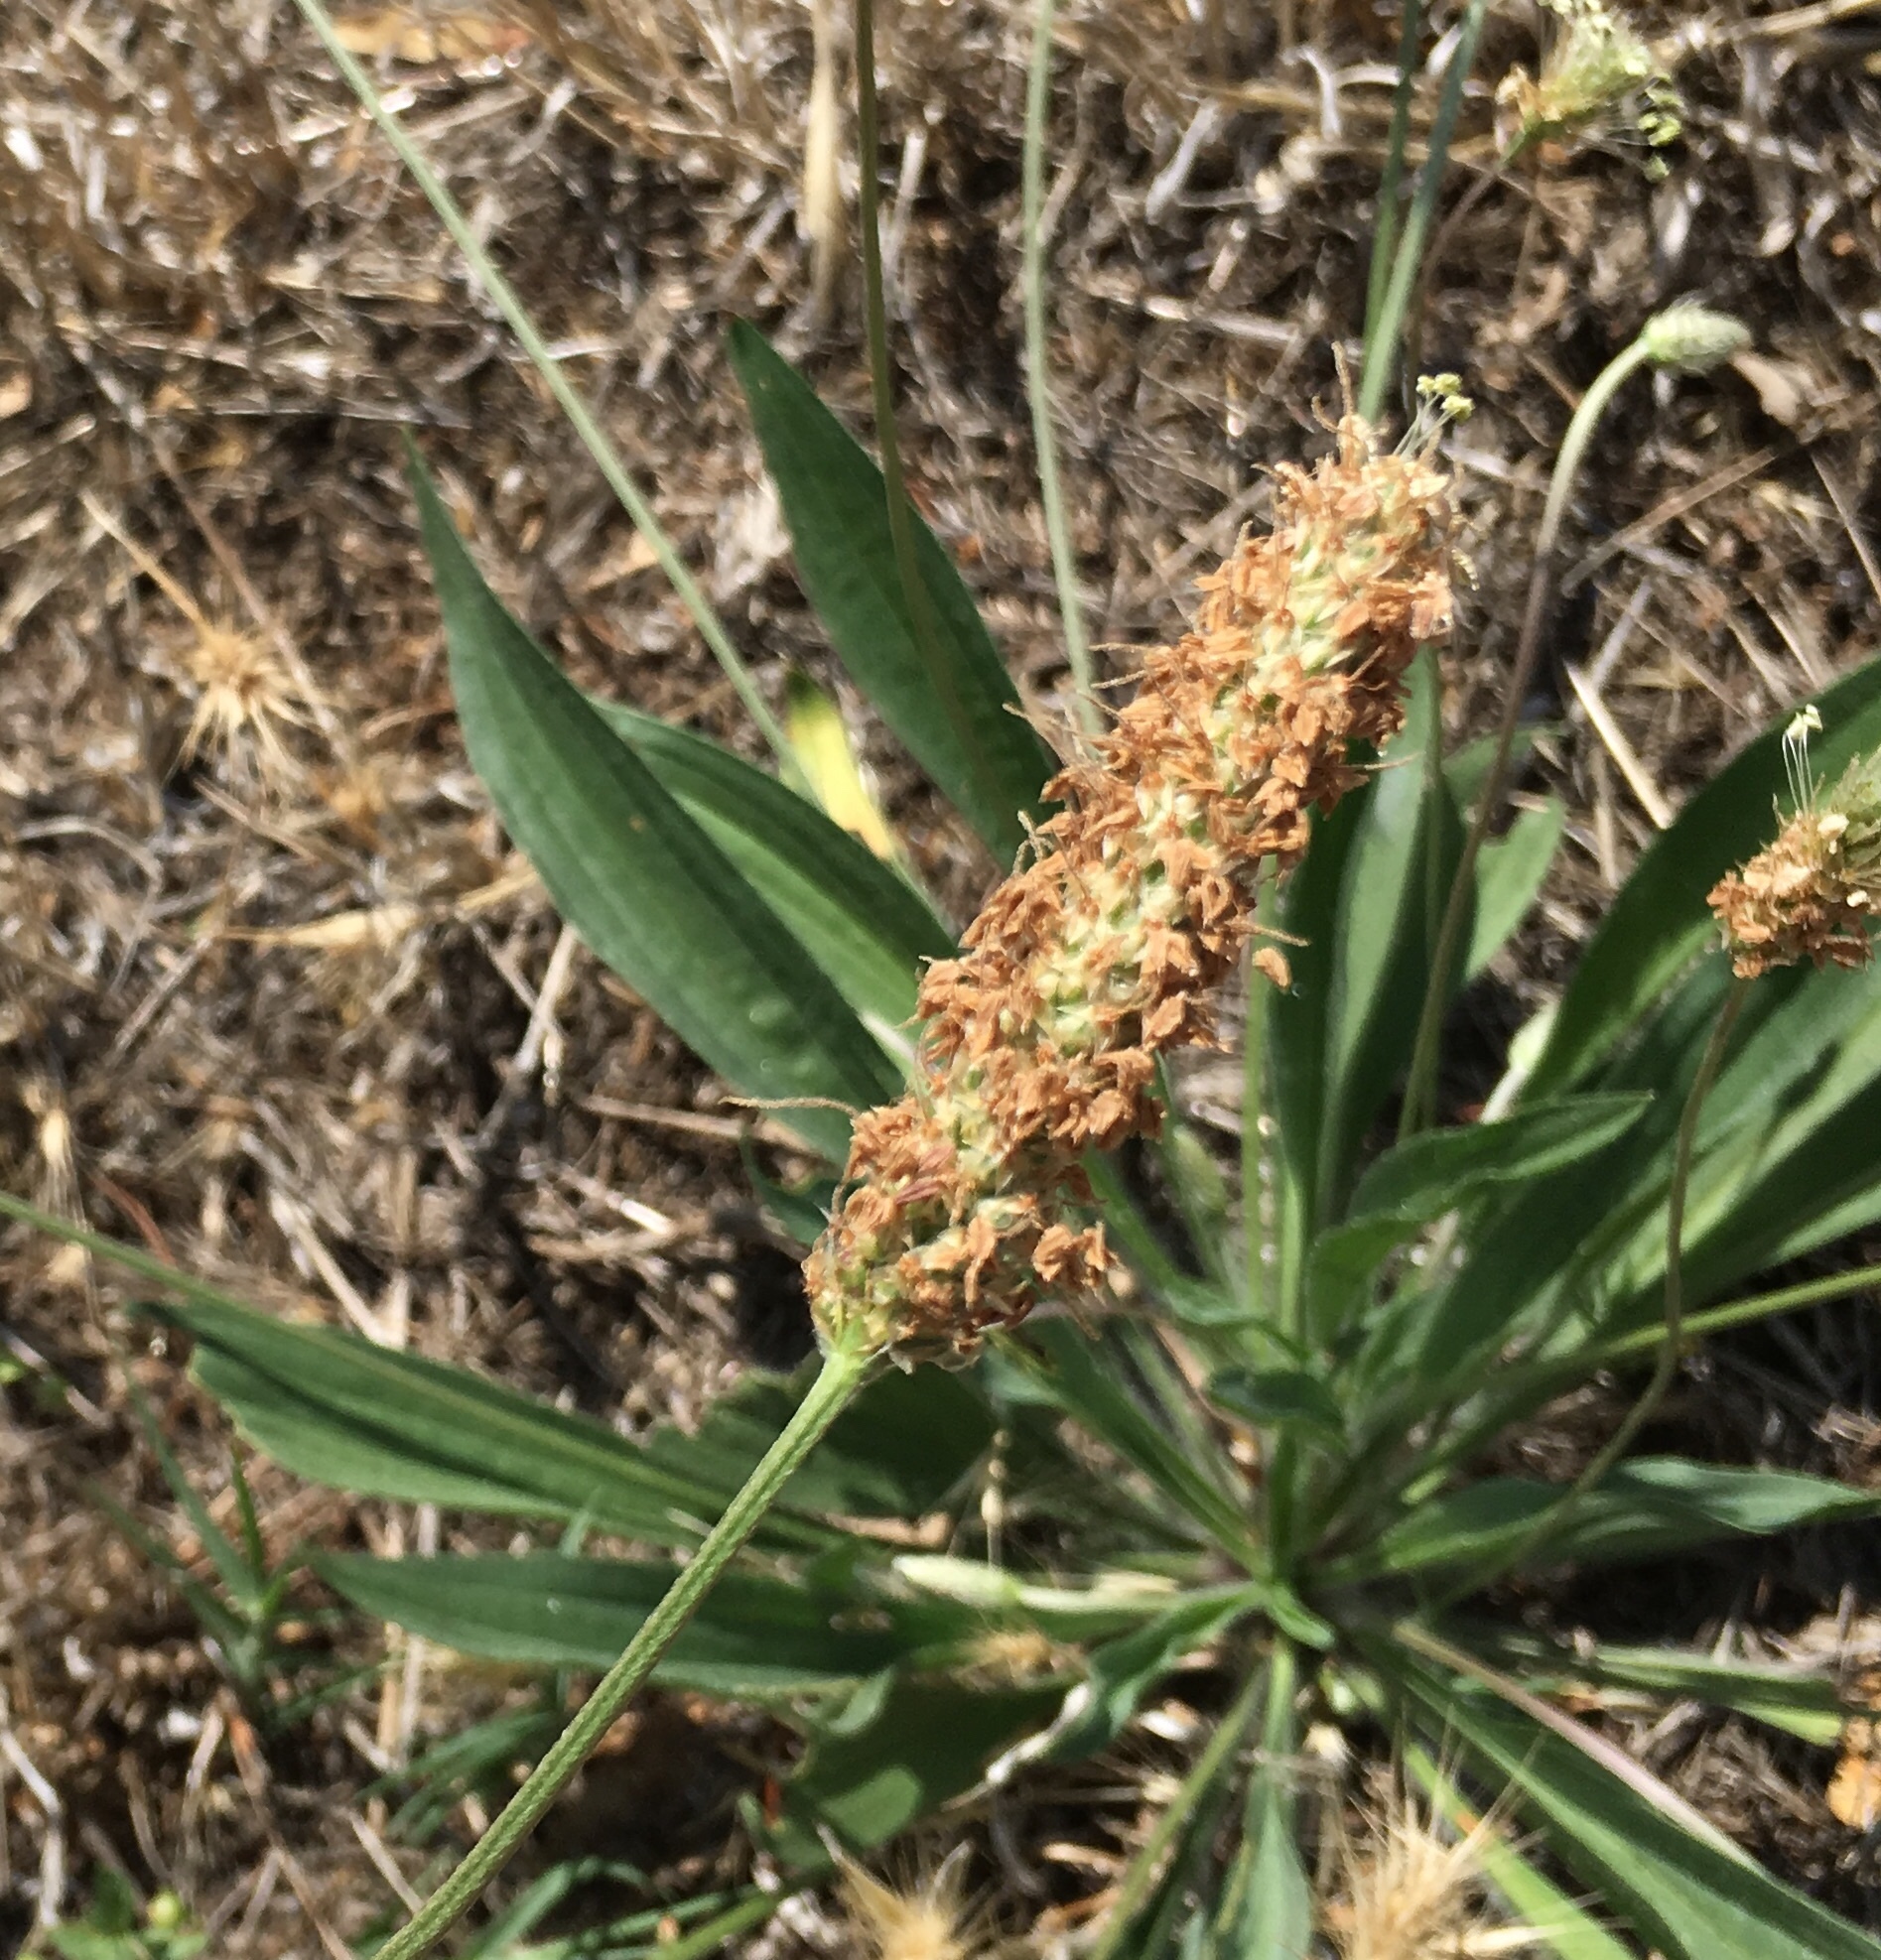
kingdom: Plantae
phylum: Tracheophyta
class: Magnoliopsida
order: Lamiales
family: Plantaginaceae
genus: Plantago
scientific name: Plantago lanceolata
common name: Ribwort plantain
